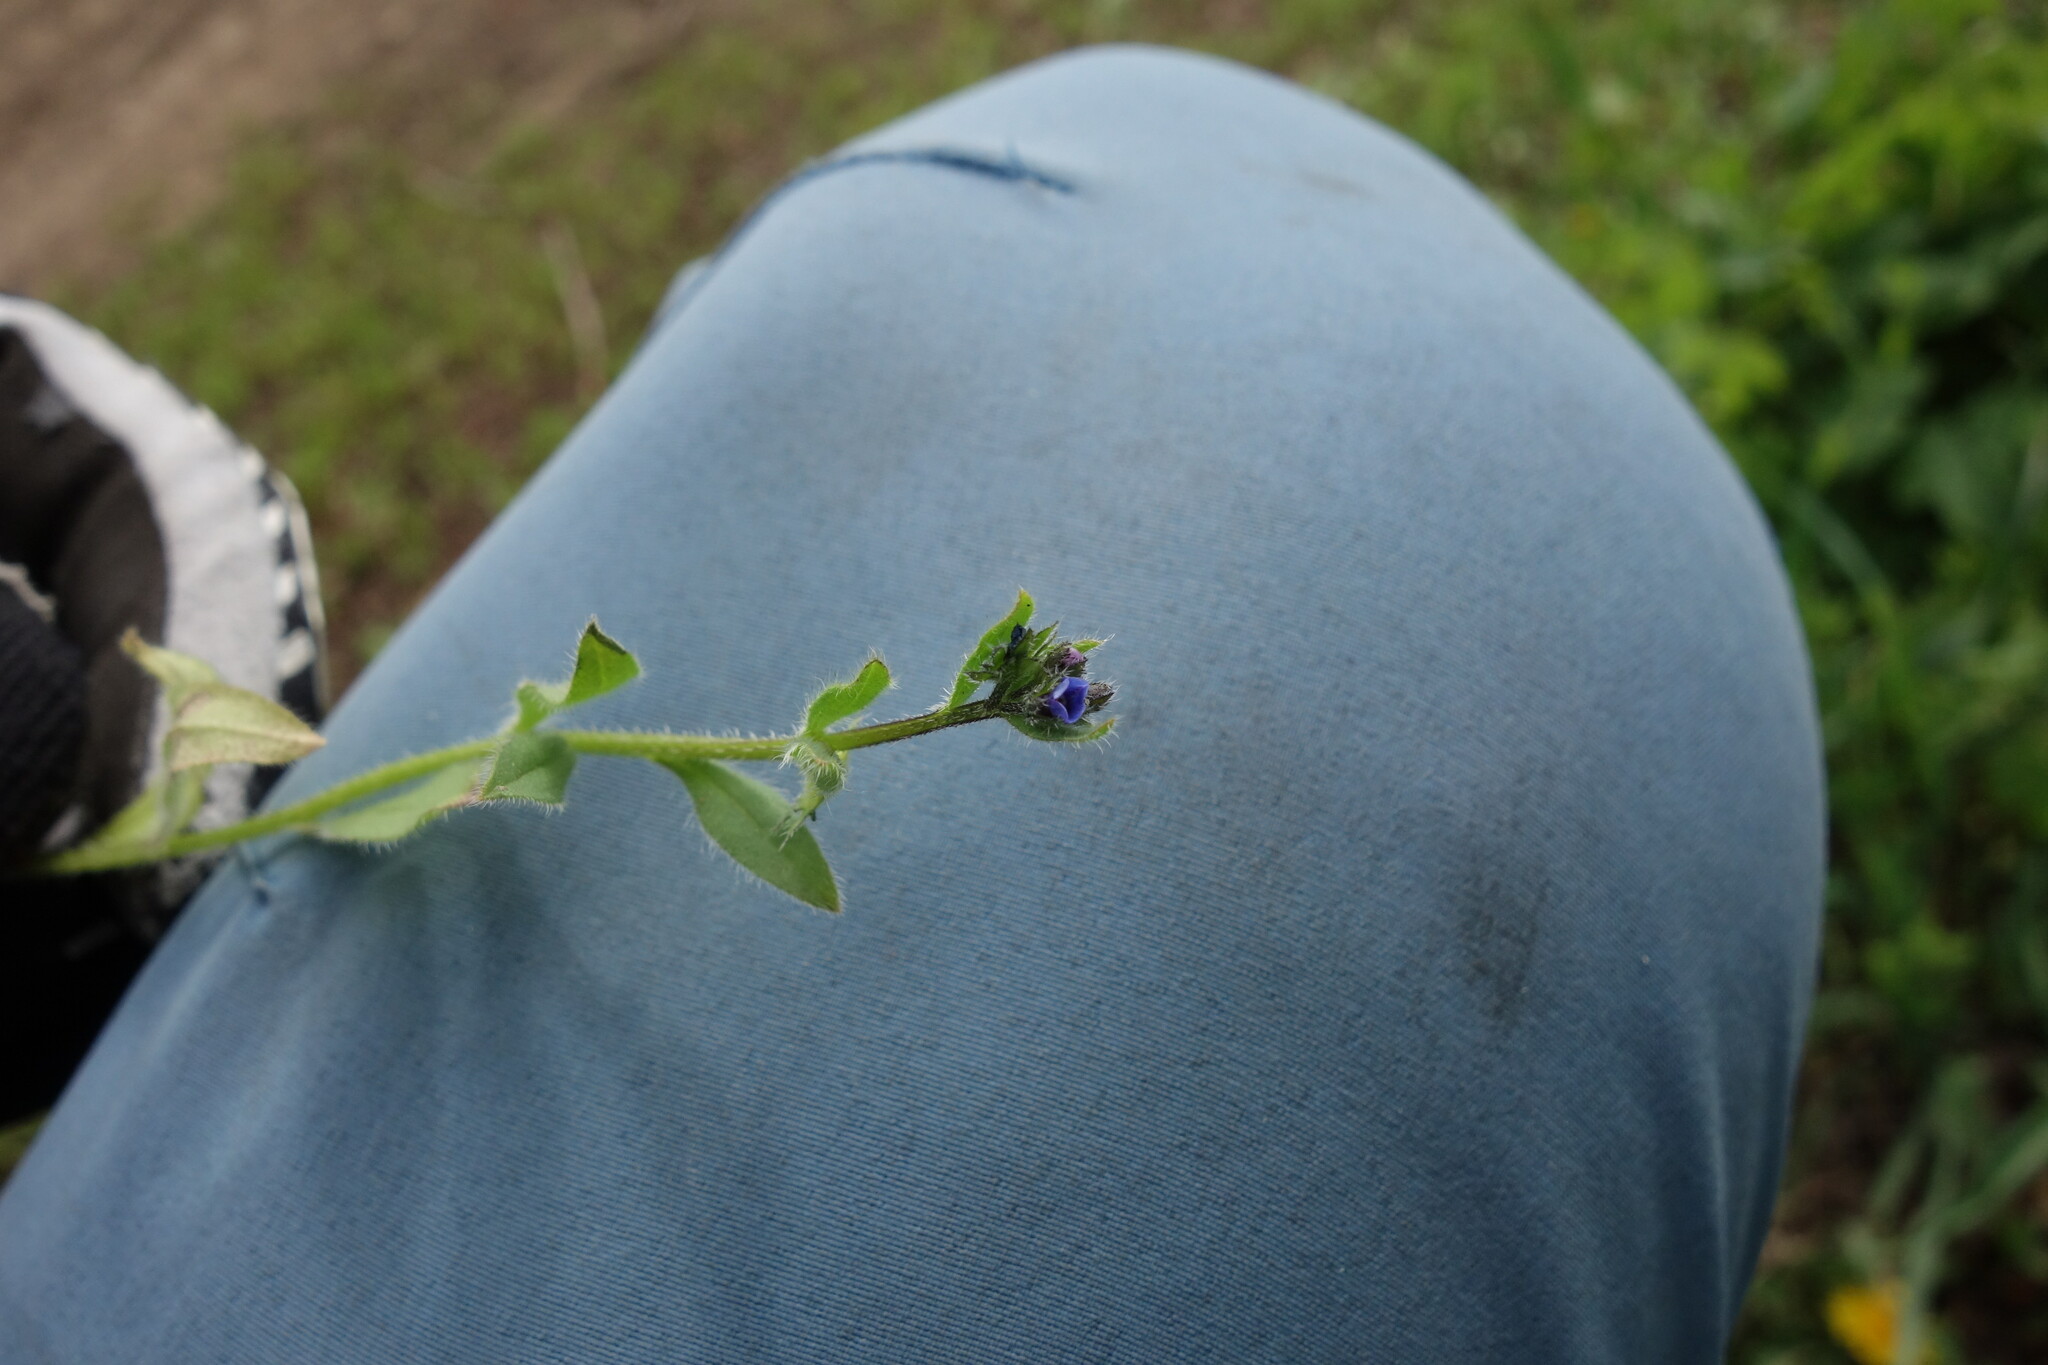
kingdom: Plantae
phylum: Tracheophyta
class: Magnoliopsida
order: Boraginales
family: Boraginaceae
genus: Asperugo
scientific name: Asperugo procumbens
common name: Madwort
